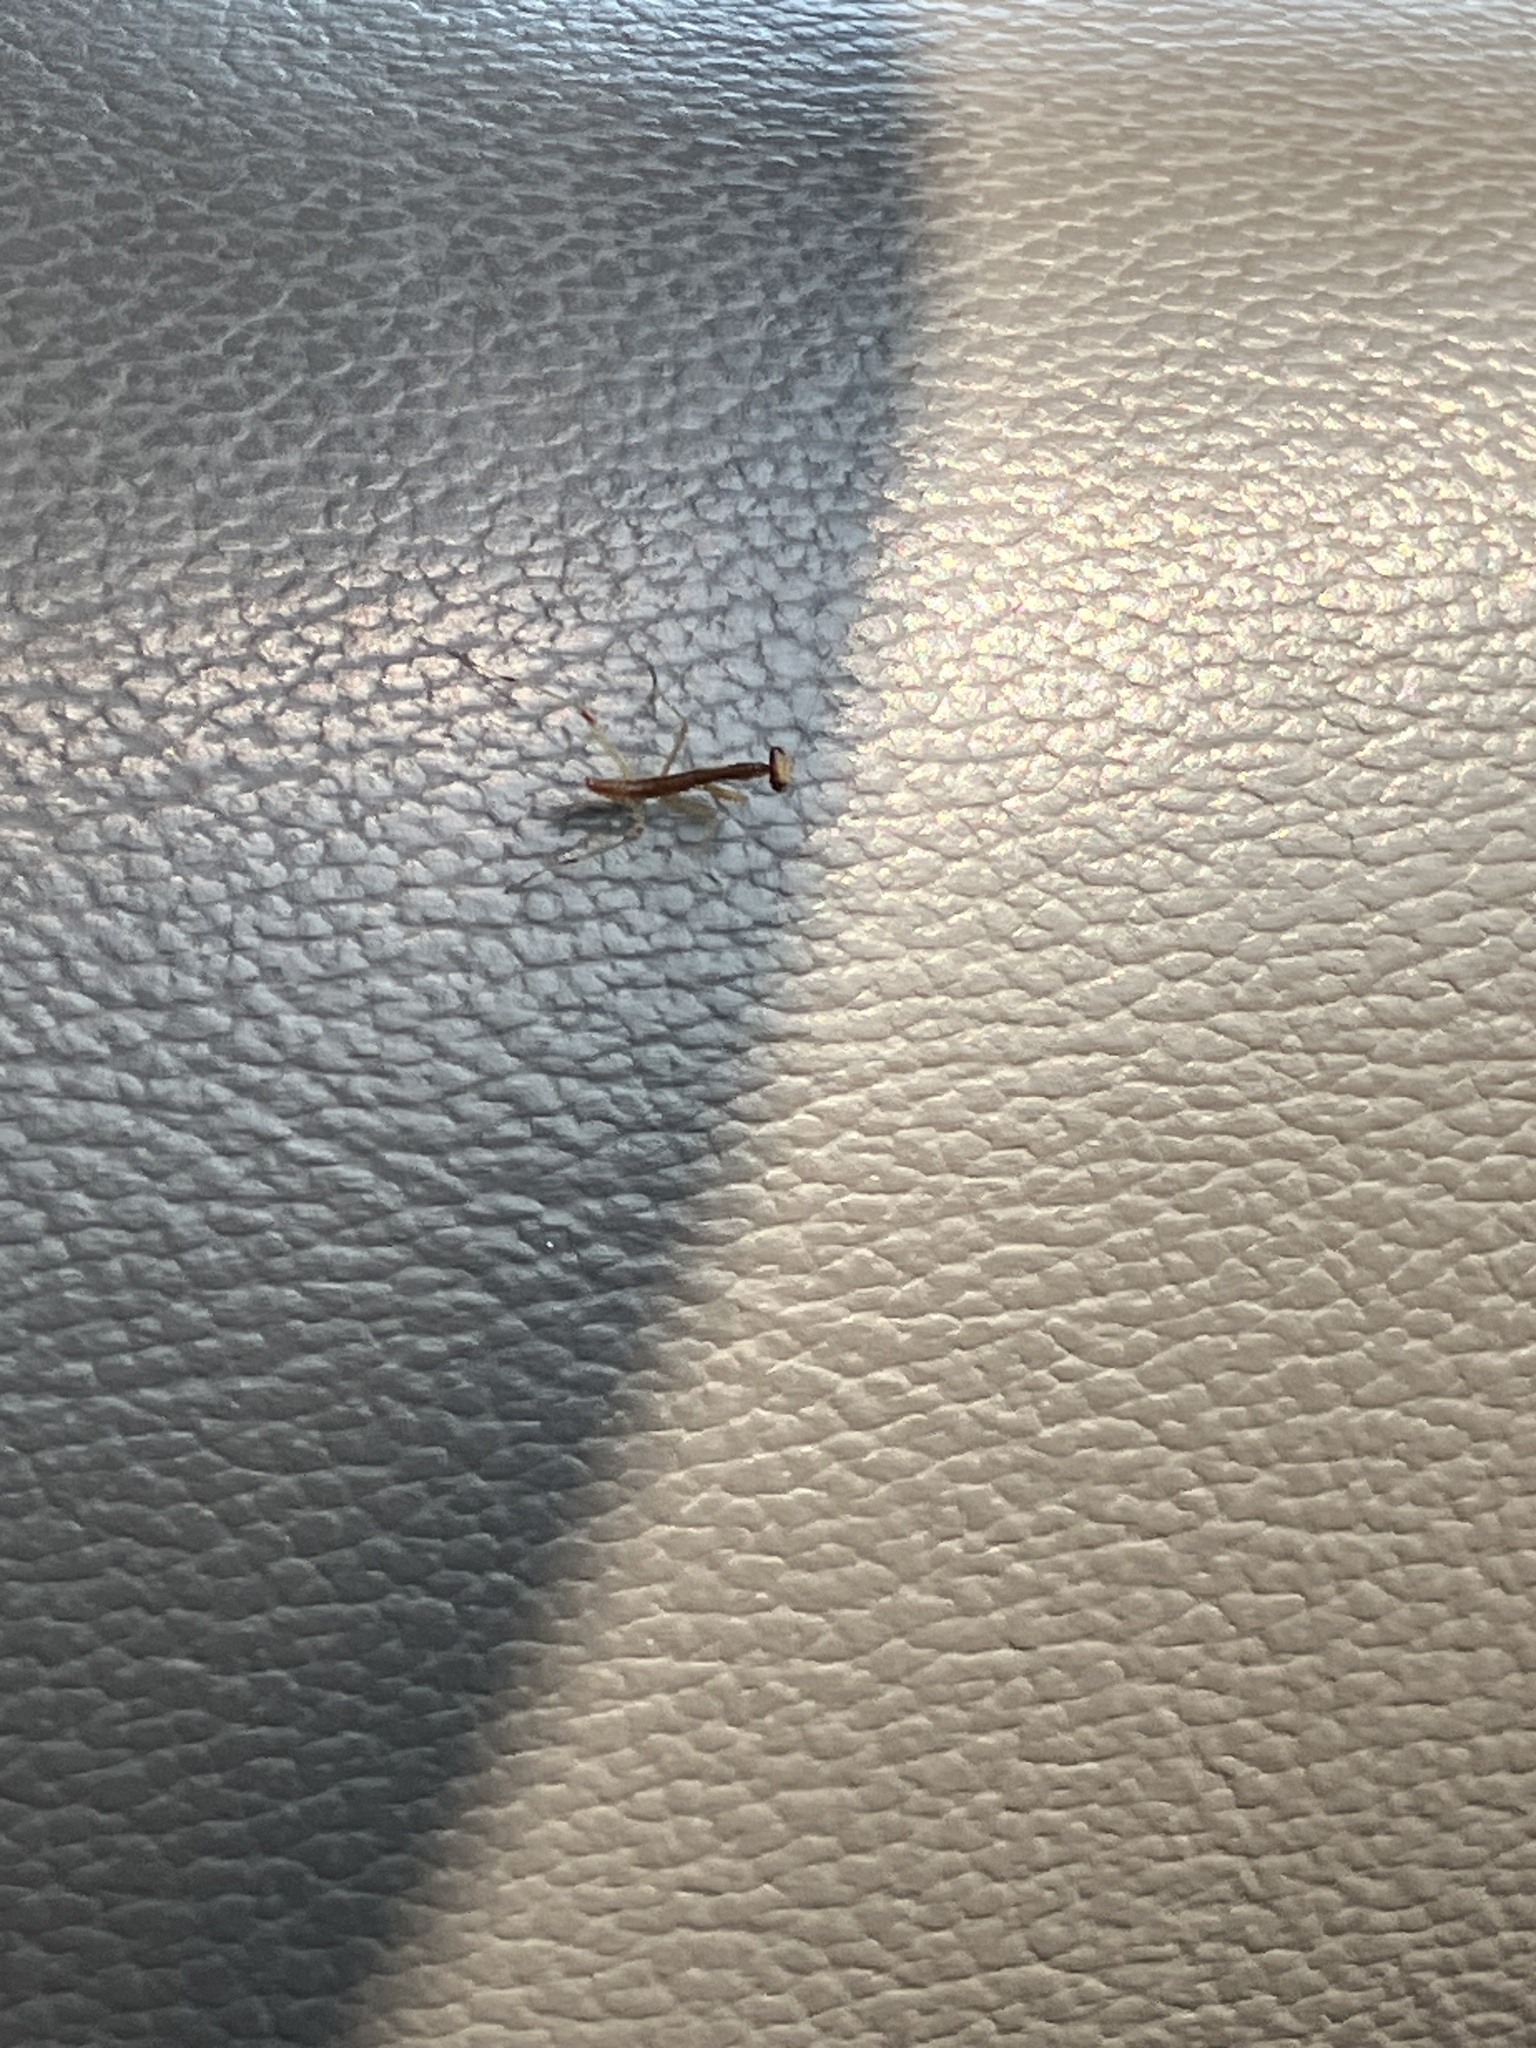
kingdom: Animalia
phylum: Arthropoda
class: Insecta
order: Mantodea
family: Mantidae
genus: Stagmomantis
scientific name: Stagmomantis carolina
